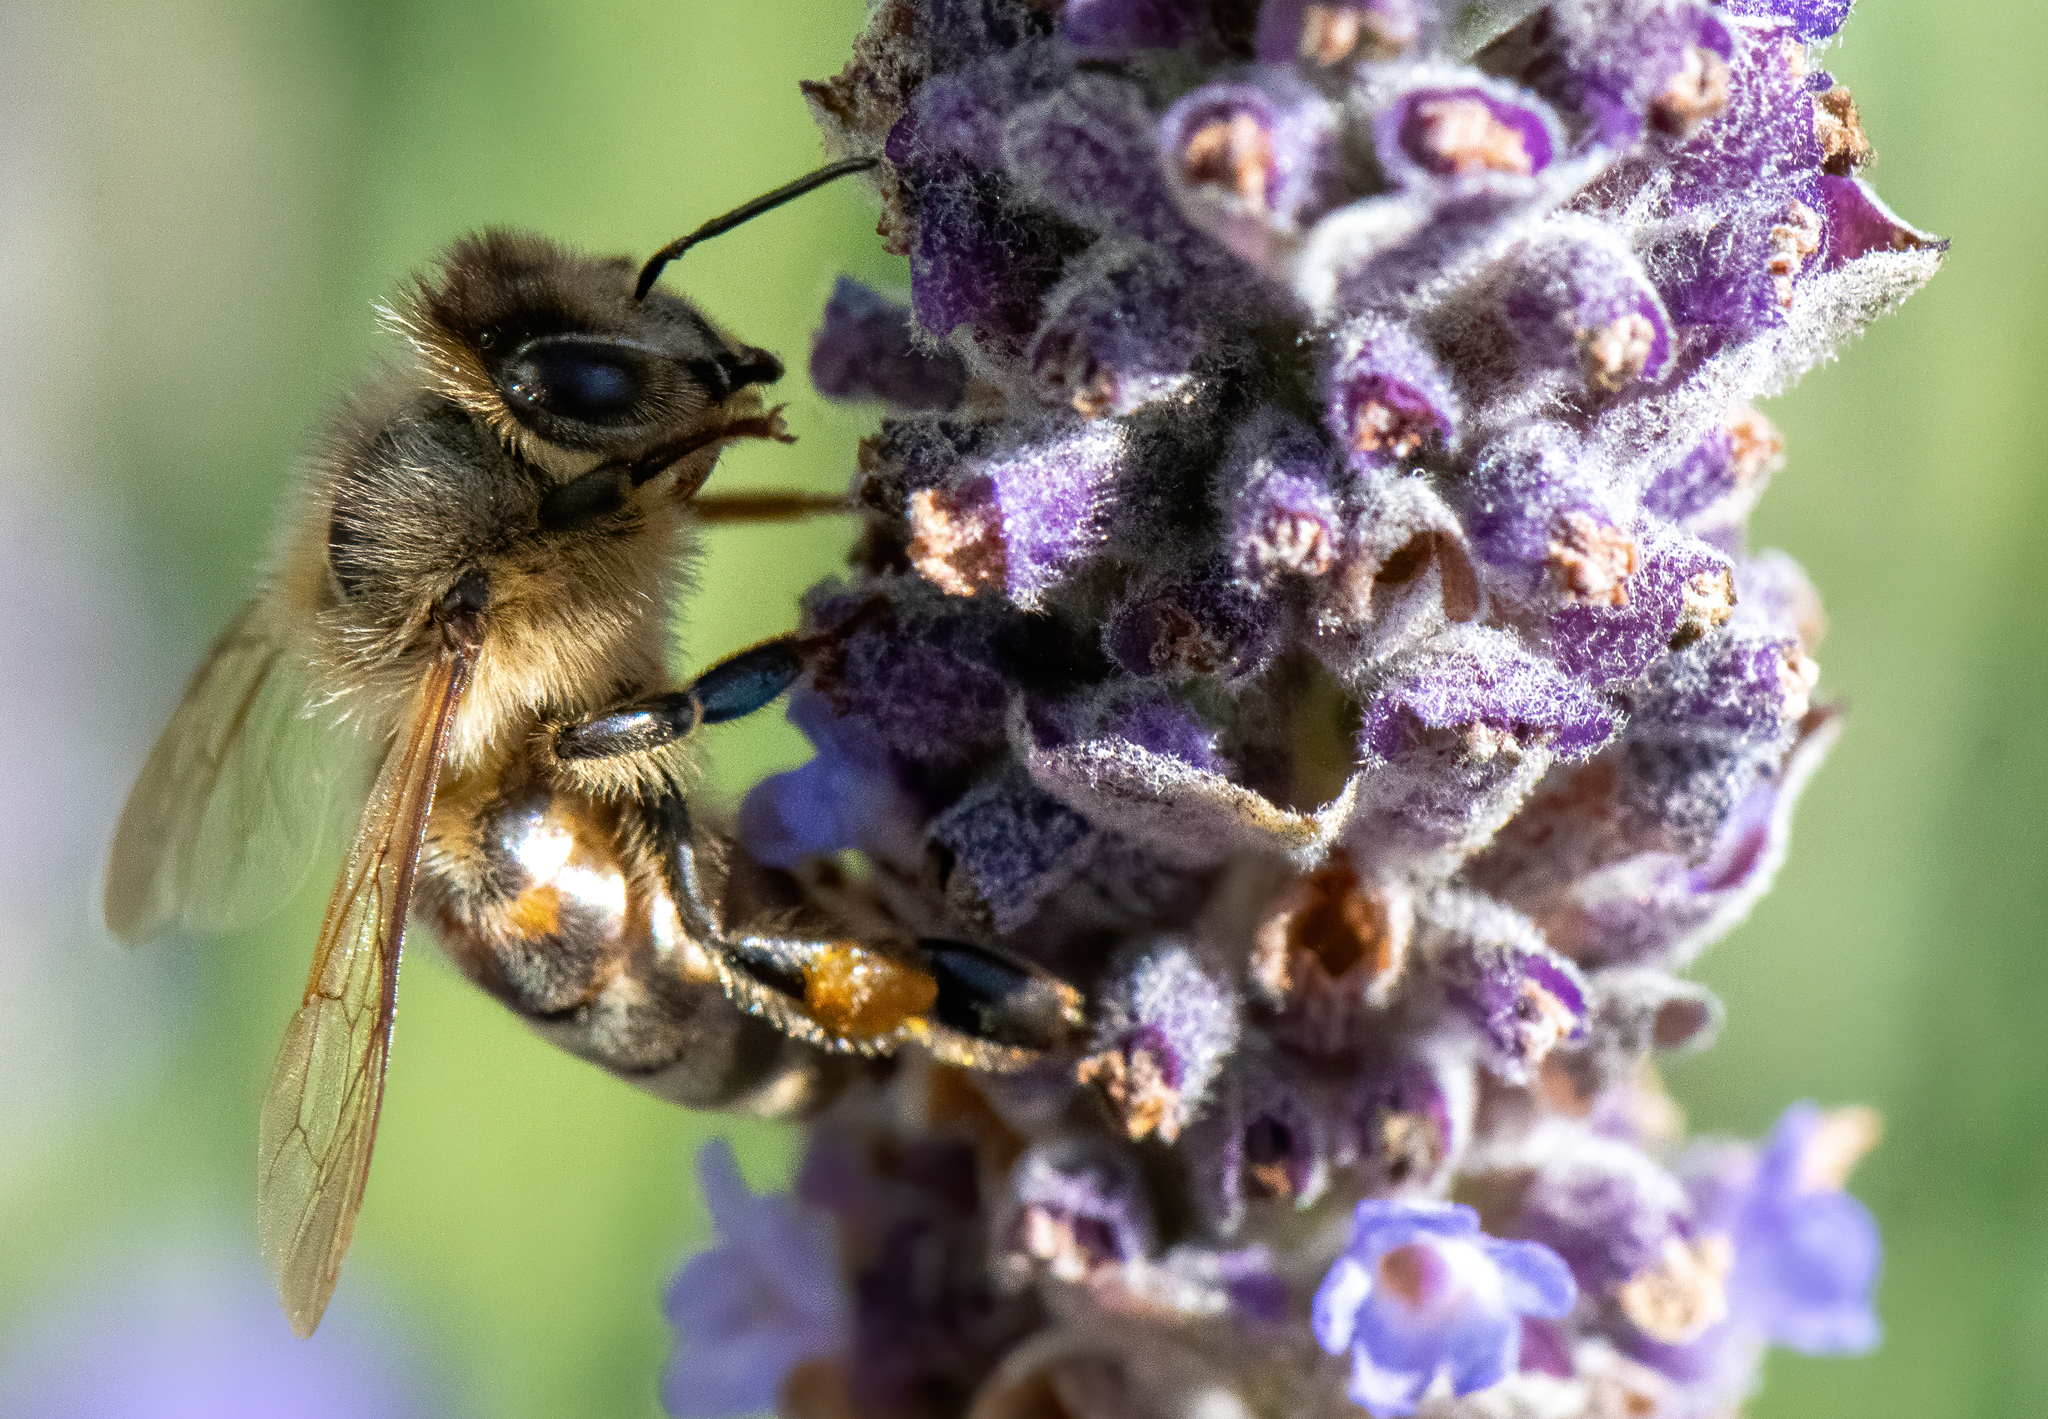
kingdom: Animalia
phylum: Arthropoda
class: Insecta
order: Hymenoptera
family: Apidae
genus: Apis
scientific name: Apis mellifera
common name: Honey bee
